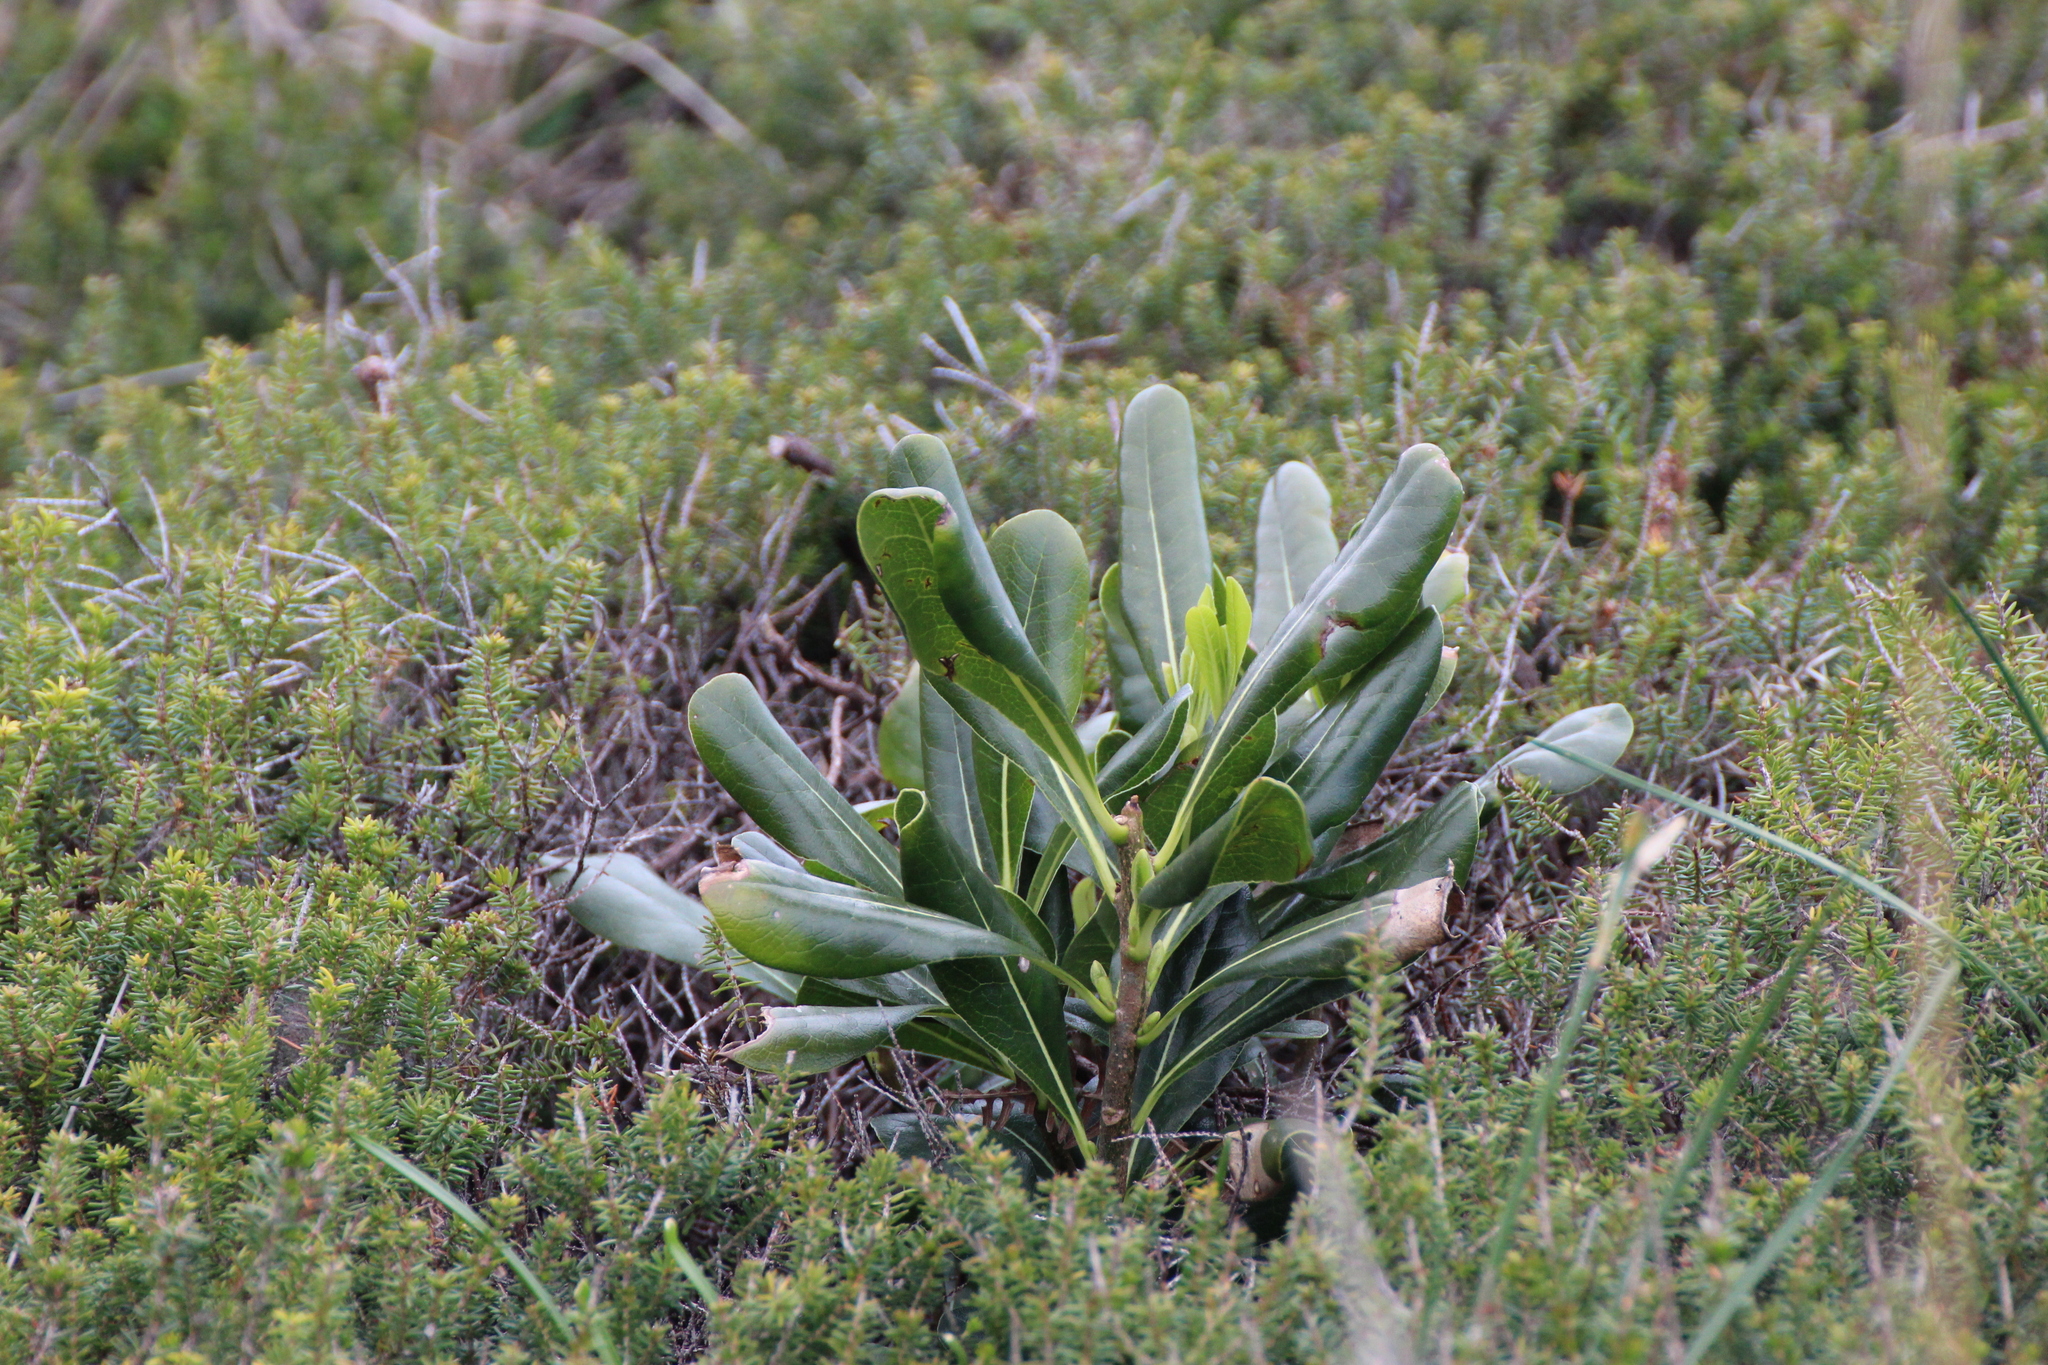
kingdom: Plantae
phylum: Tracheophyta
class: Magnoliopsida
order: Apiales
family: Pittosporaceae
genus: Pittosporum
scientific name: Pittosporum tobira
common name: Japanese cheesewood
